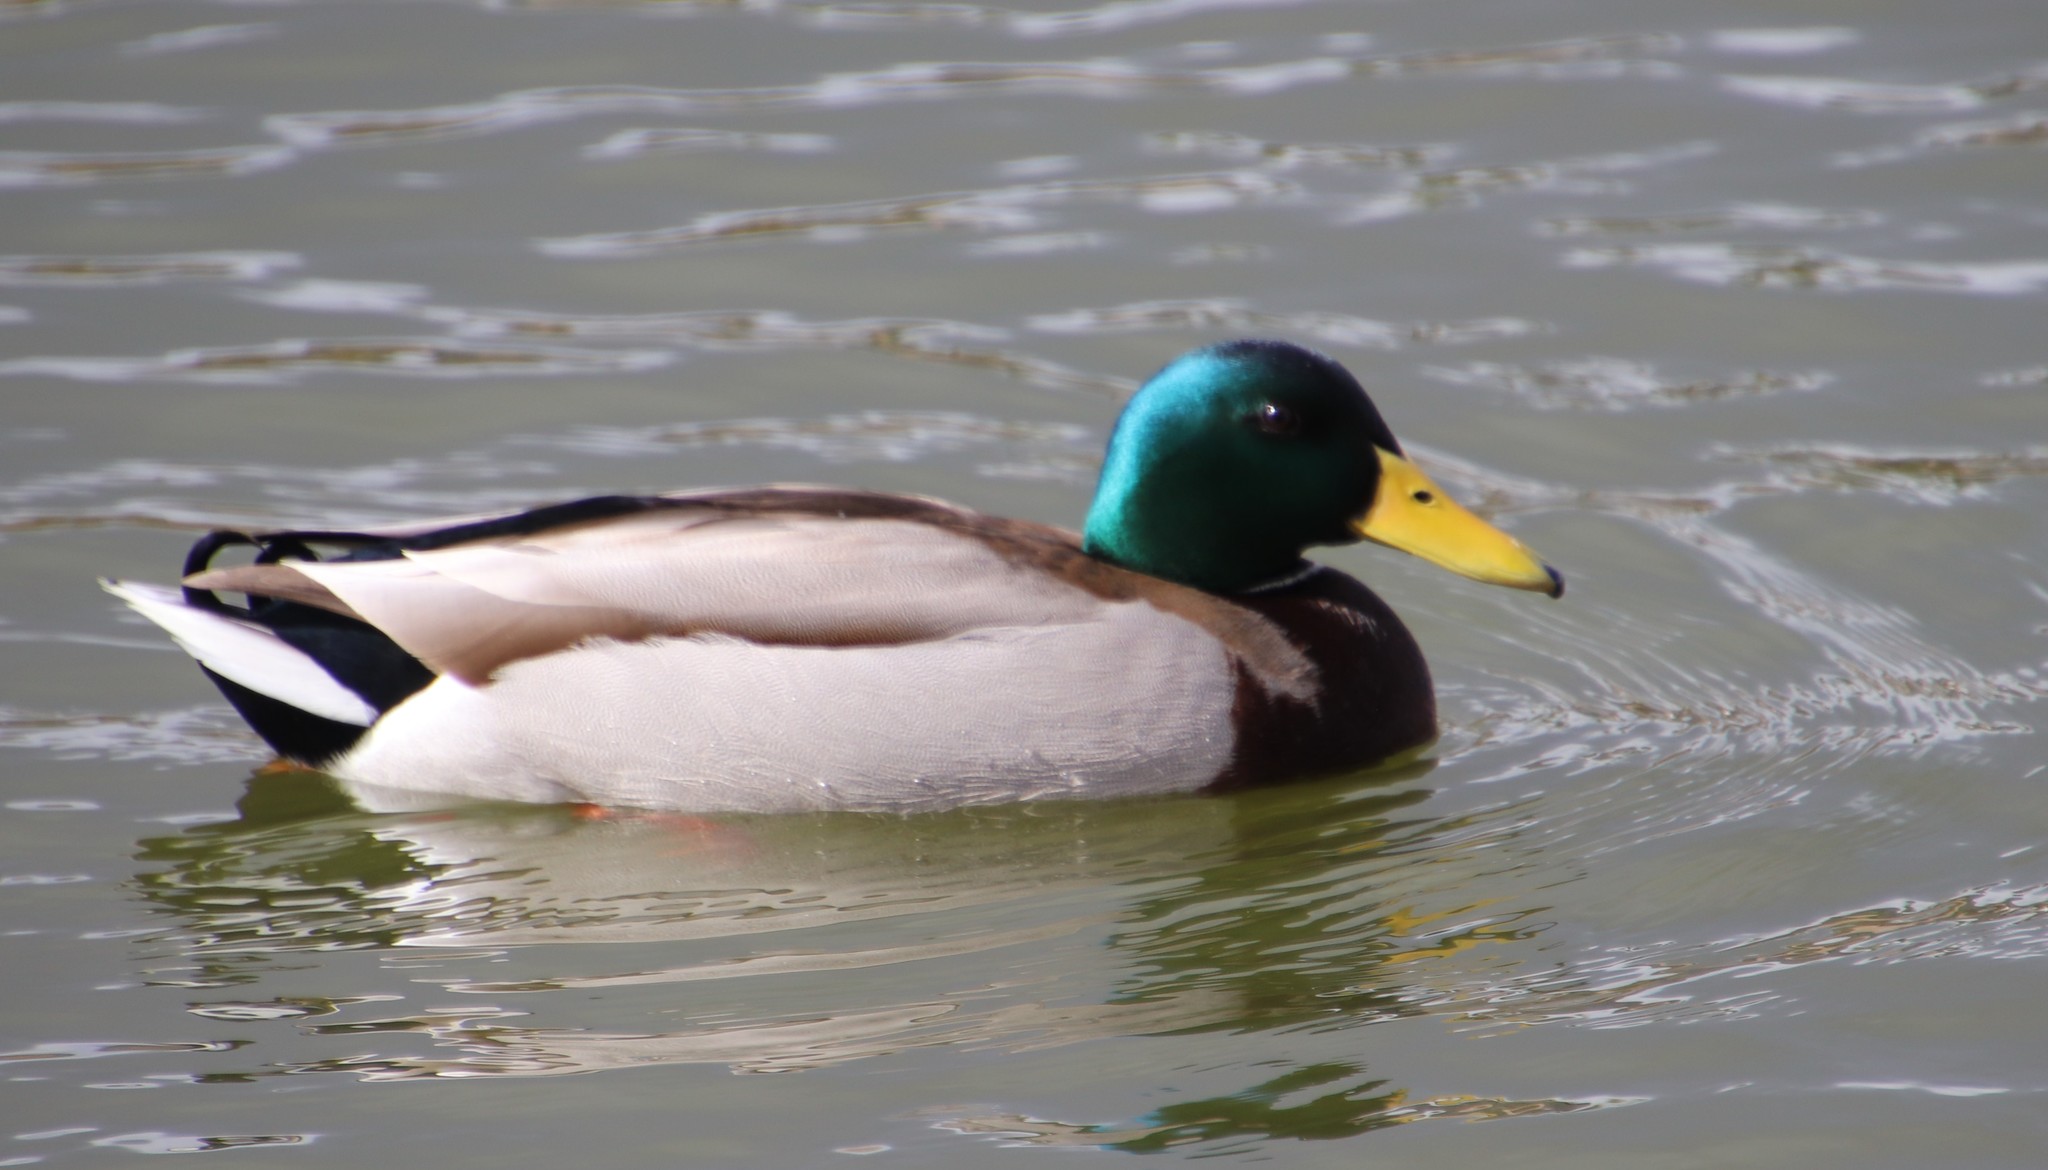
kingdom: Animalia
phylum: Chordata
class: Aves
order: Anseriformes
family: Anatidae
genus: Anas
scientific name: Anas platyrhynchos
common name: Mallard
